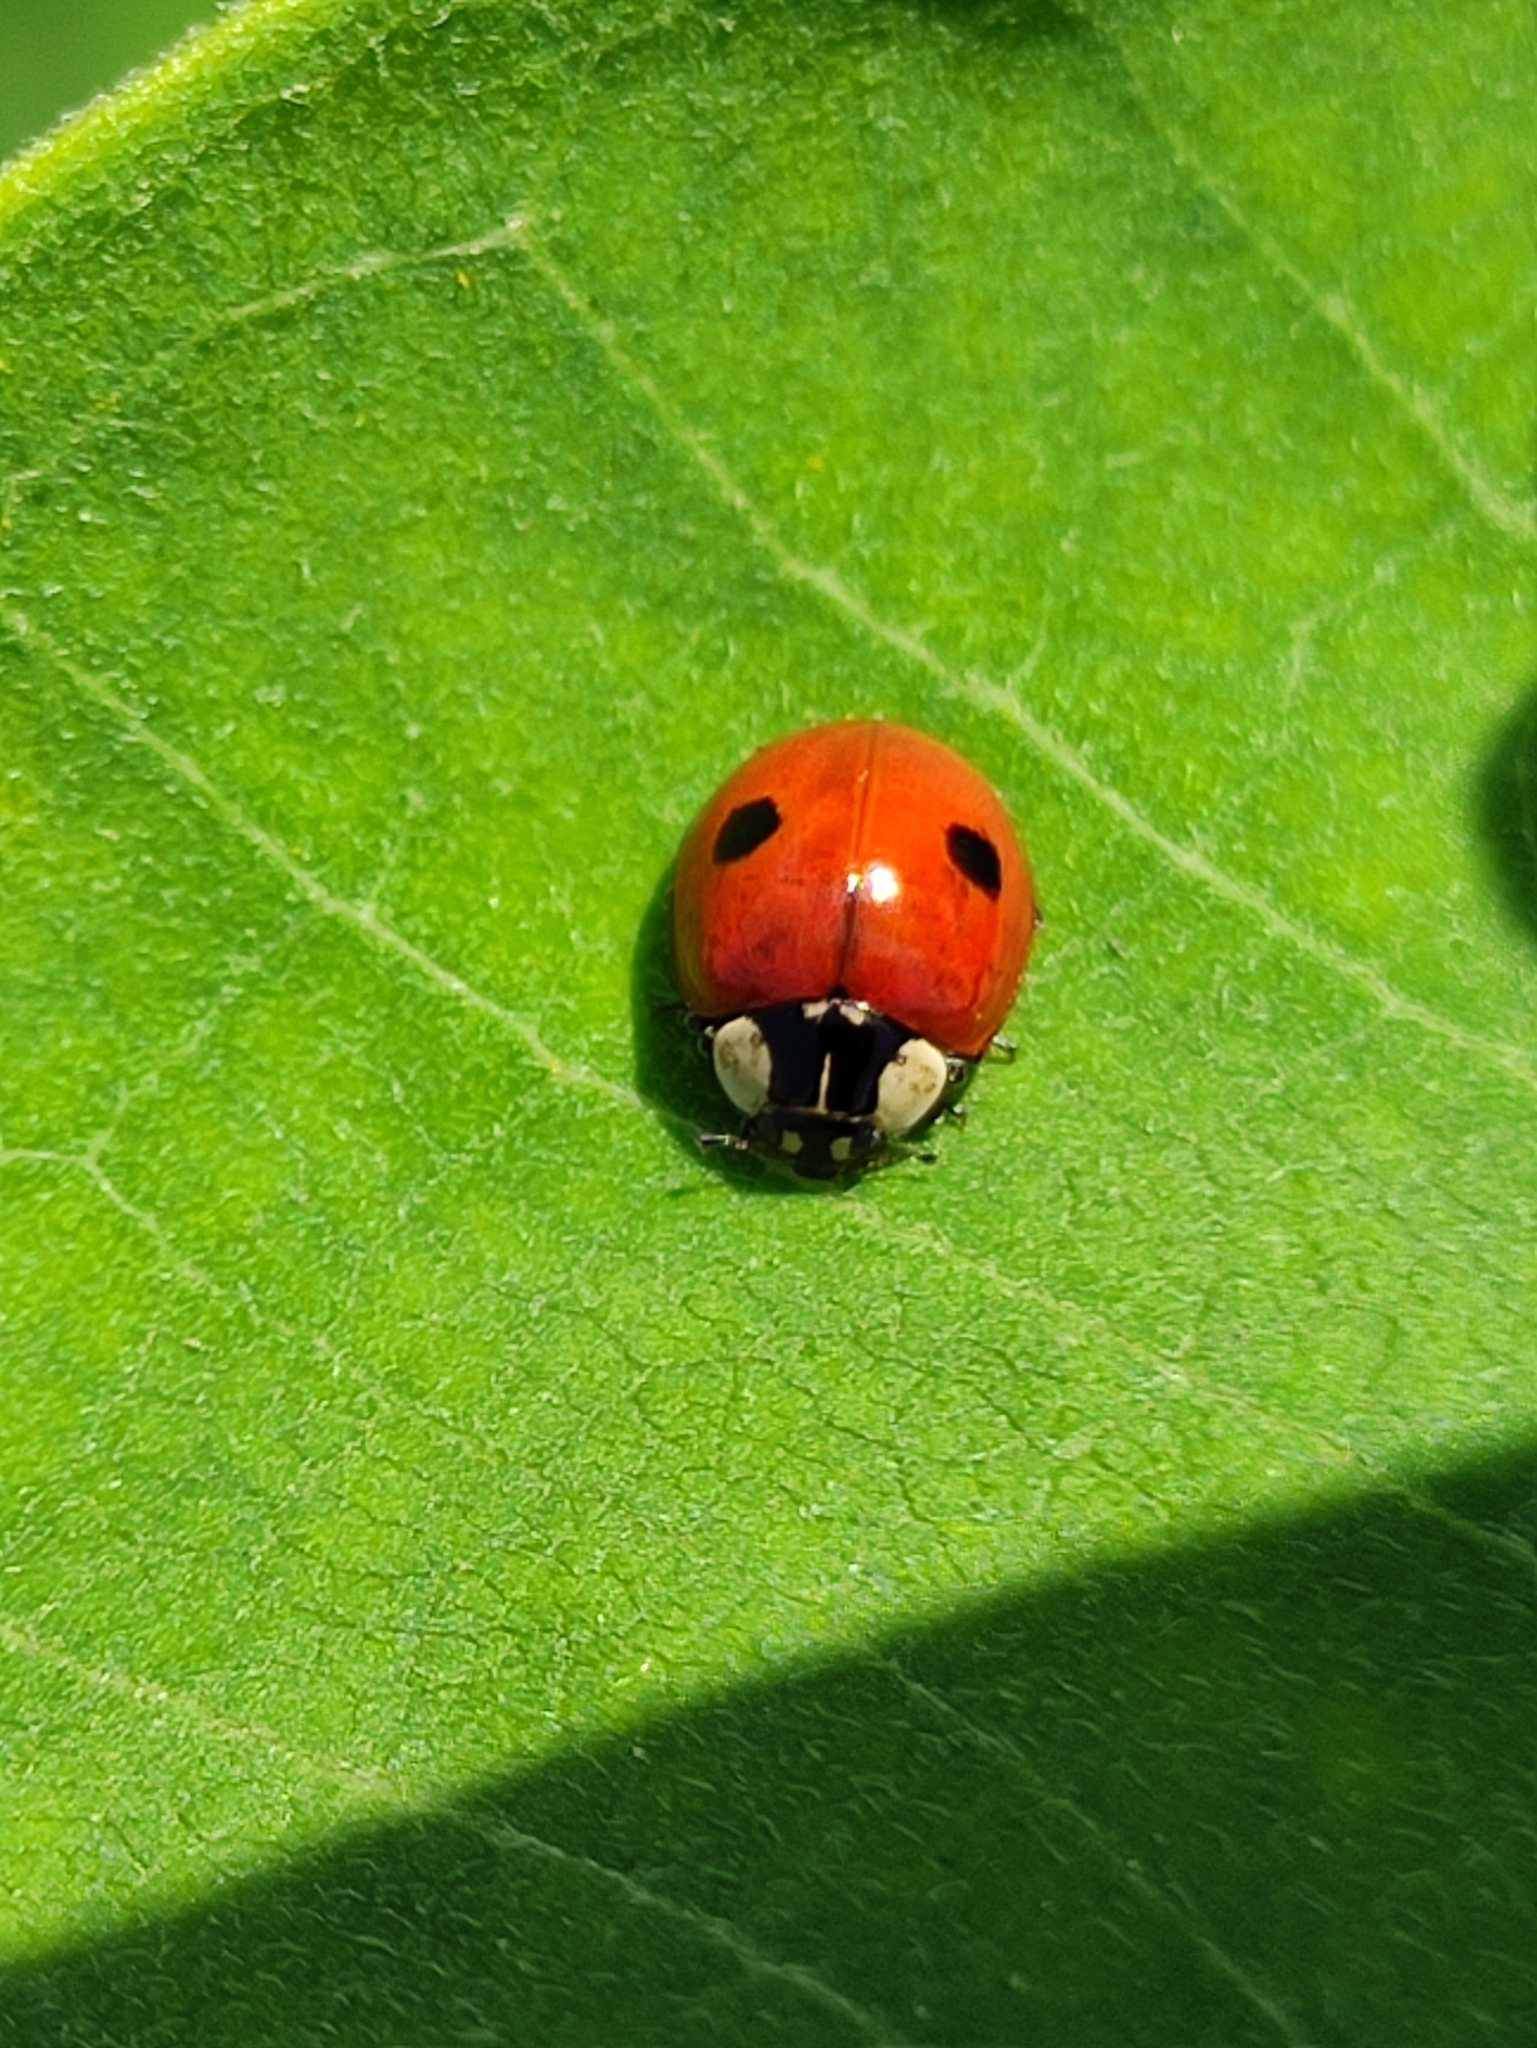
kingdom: Animalia
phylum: Arthropoda
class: Insecta
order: Coleoptera
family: Coccinellidae
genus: Adalia
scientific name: Adalia bipunctata
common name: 2-spot ladybird
